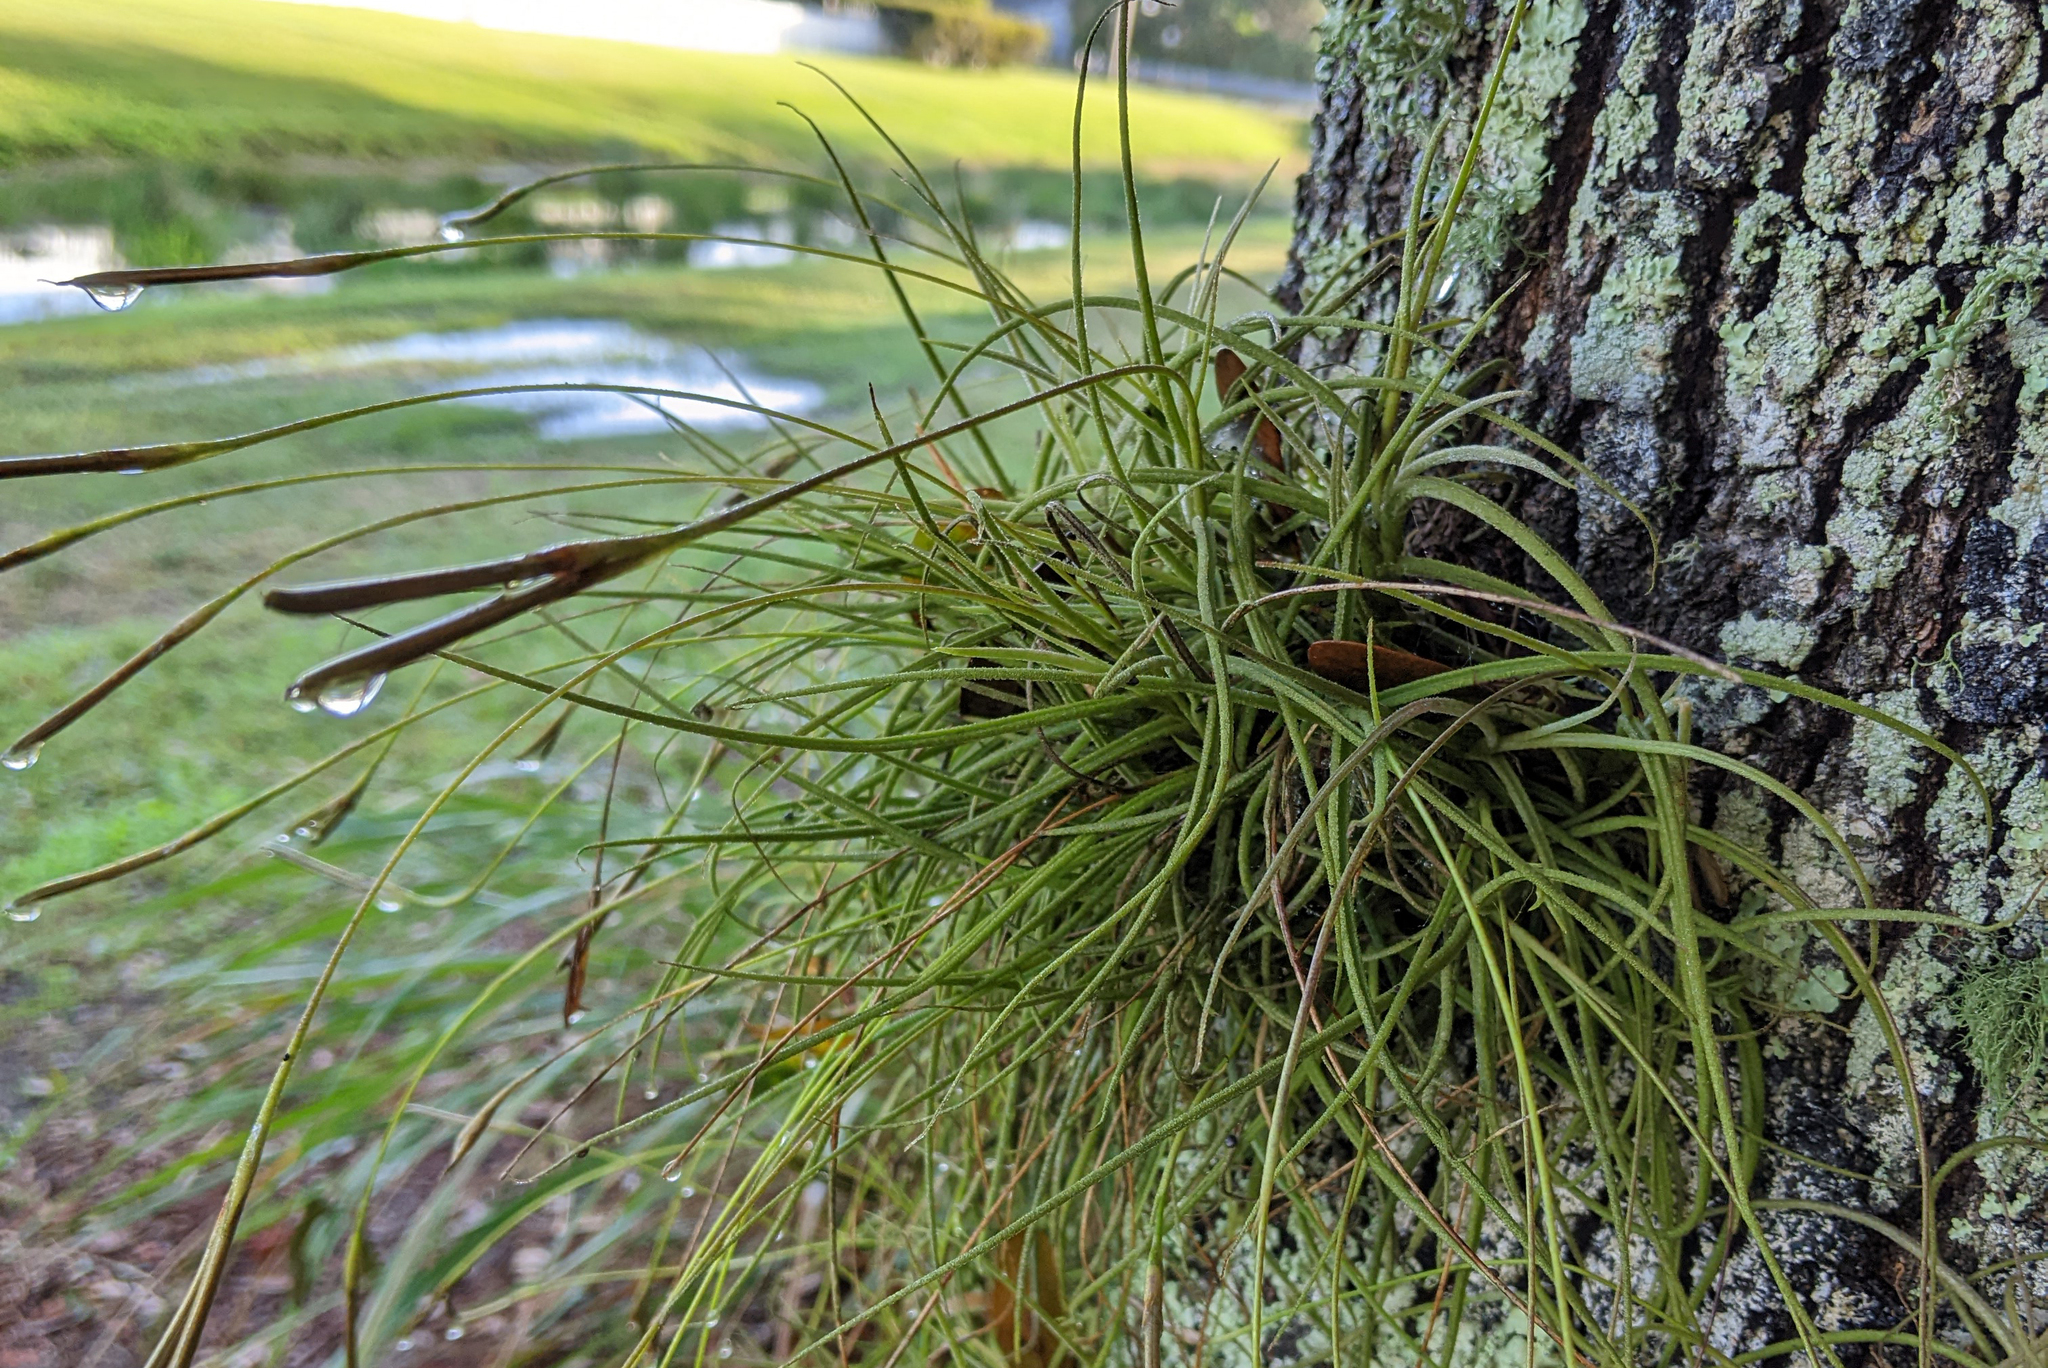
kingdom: Plantae
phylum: Tracheophyta
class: Liliopsida
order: Poales
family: Bromeliaceae
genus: Tillandsia
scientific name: Tillandsia recurvata
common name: Small ballmoss
